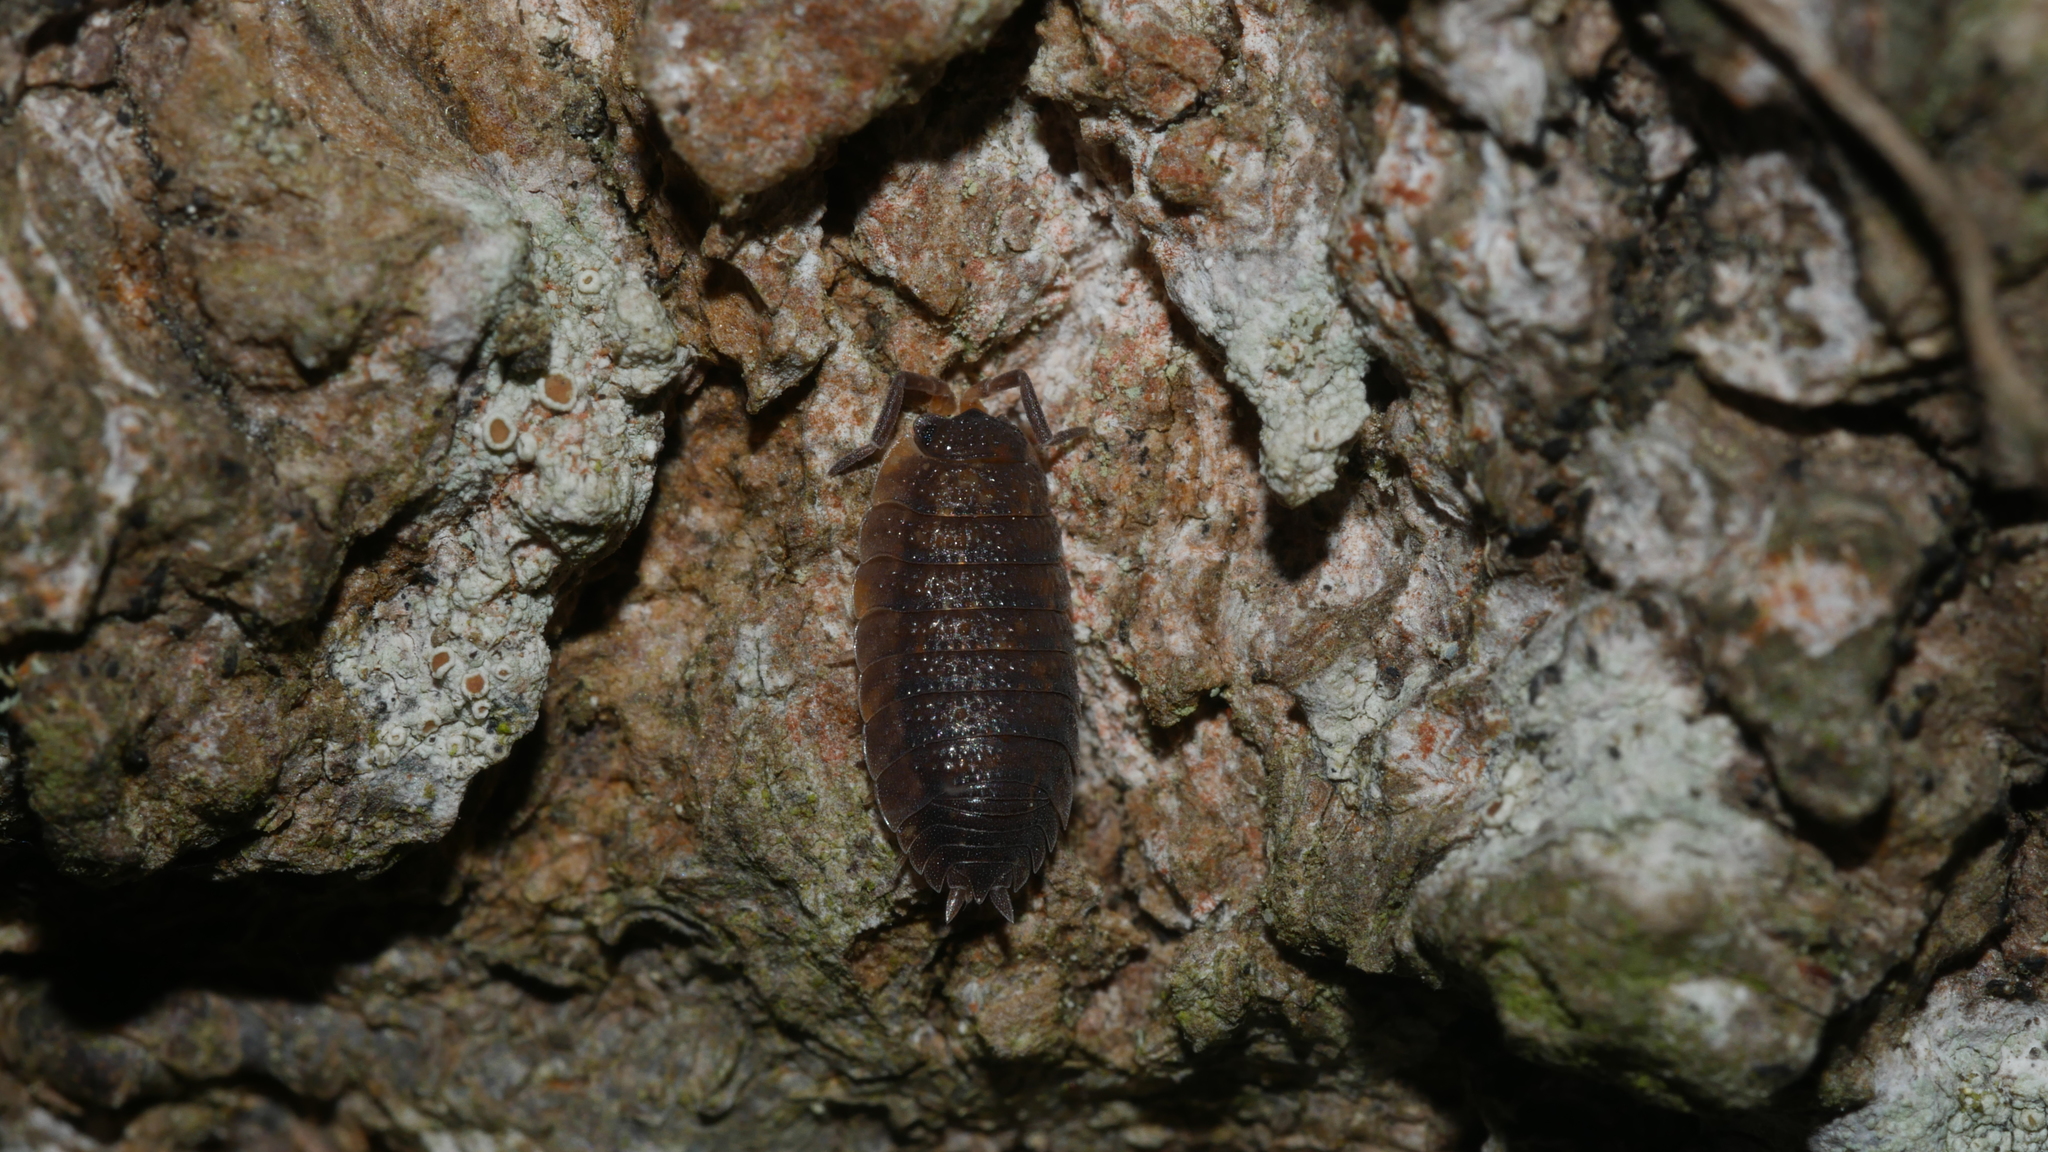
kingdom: Animalia
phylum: Arthropoda
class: Malacostraca
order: Isopoda
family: Porcellionidae
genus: Porcellio
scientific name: Porcellio scaber
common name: Common rough woodlouse
